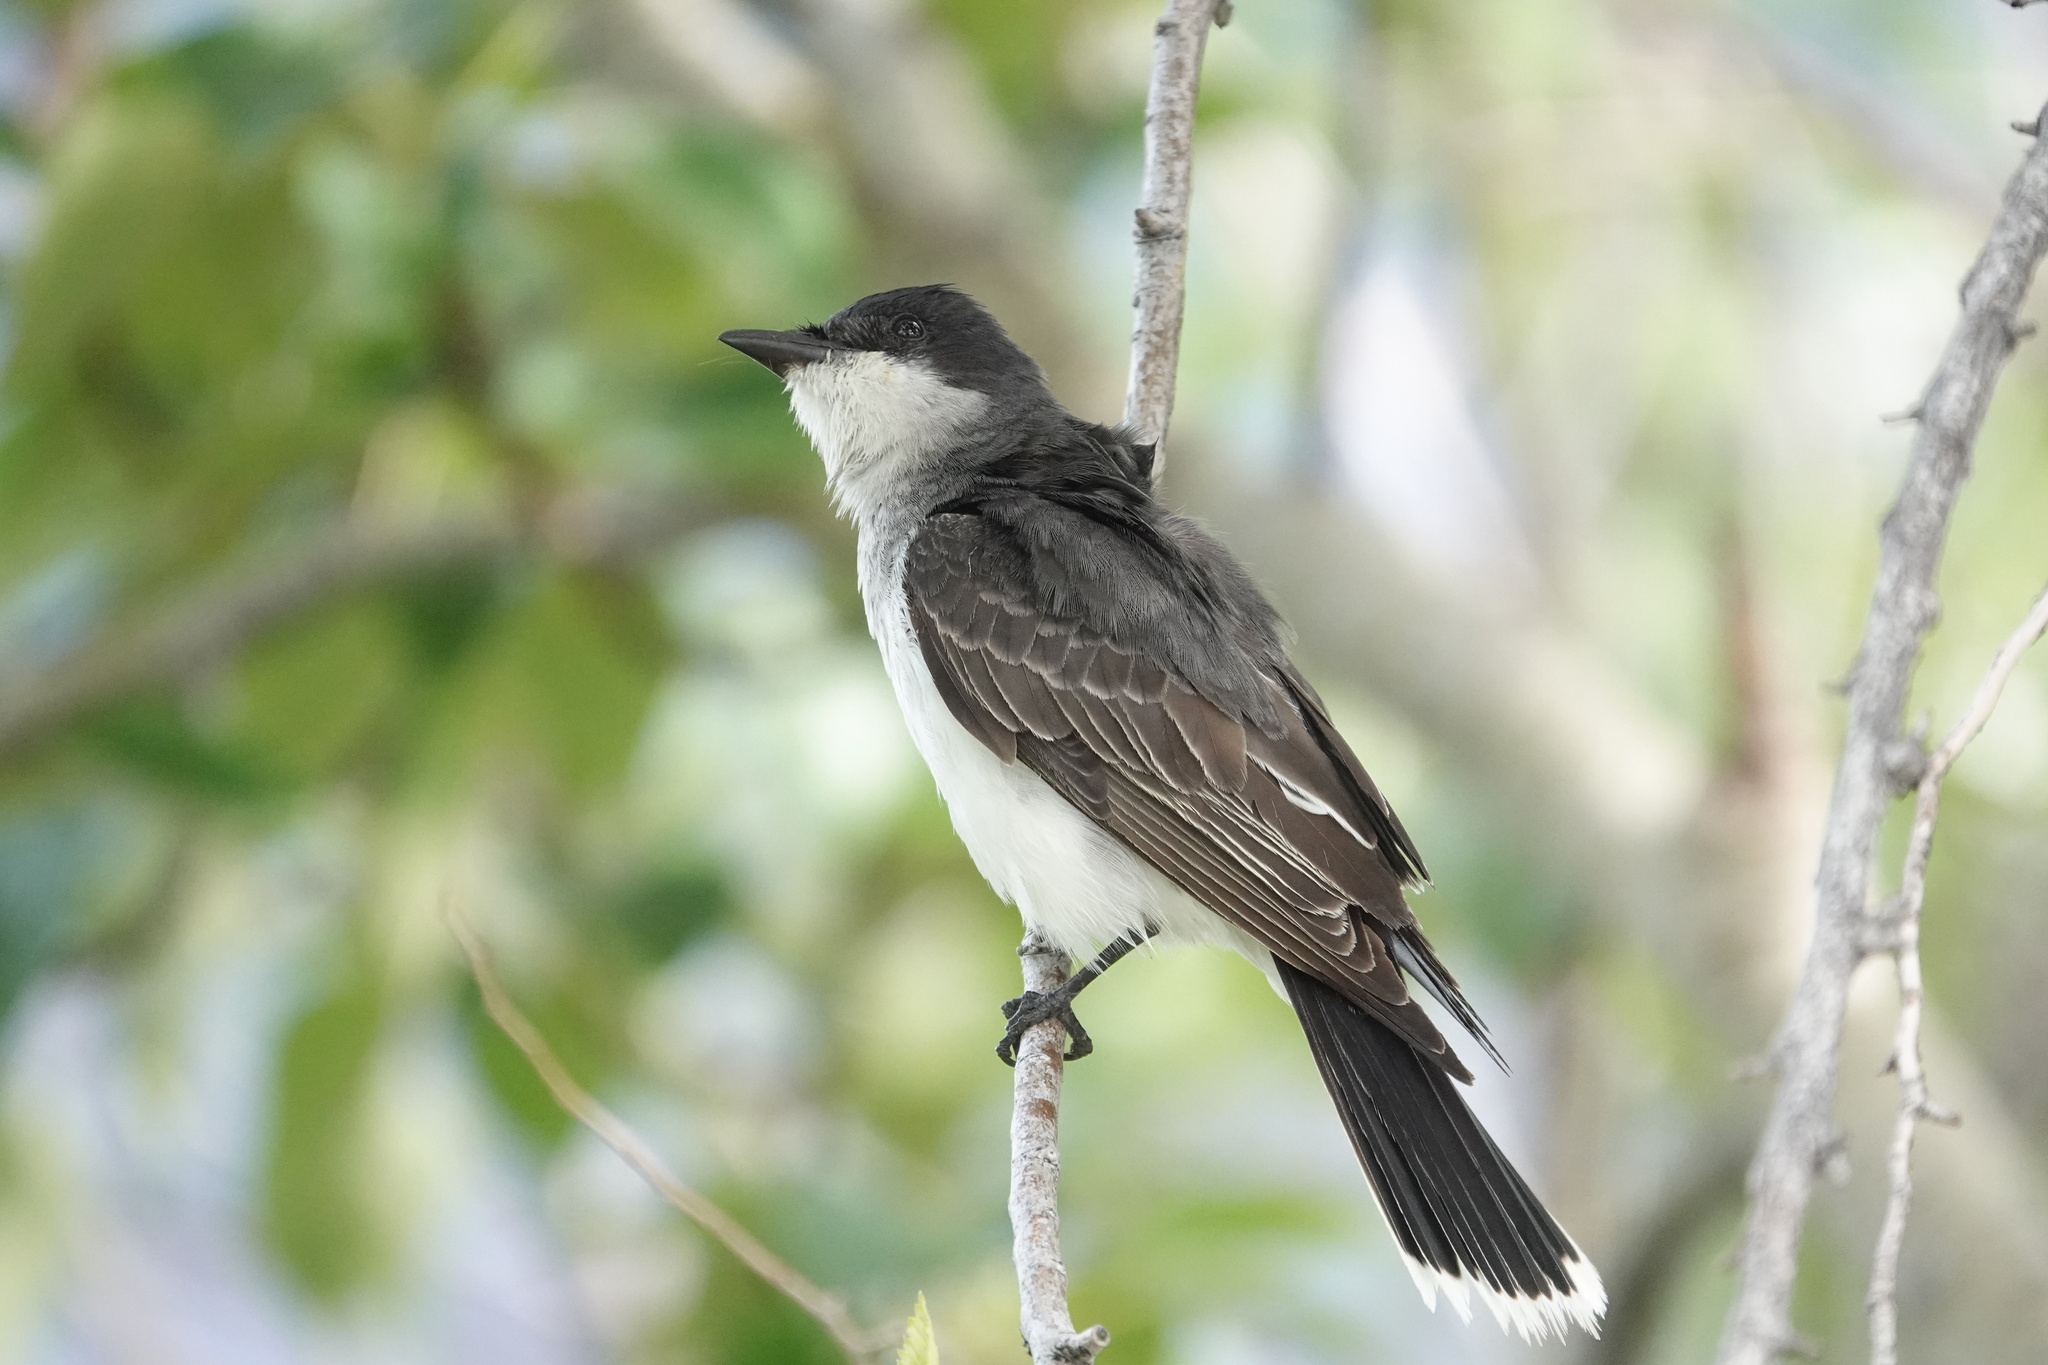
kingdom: Animalia
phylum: Chordata
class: Aves
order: Passeriformes
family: Tyrannidae
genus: Tyrannus
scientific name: Tyrannus tyrannus
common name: Eastern kingbird
